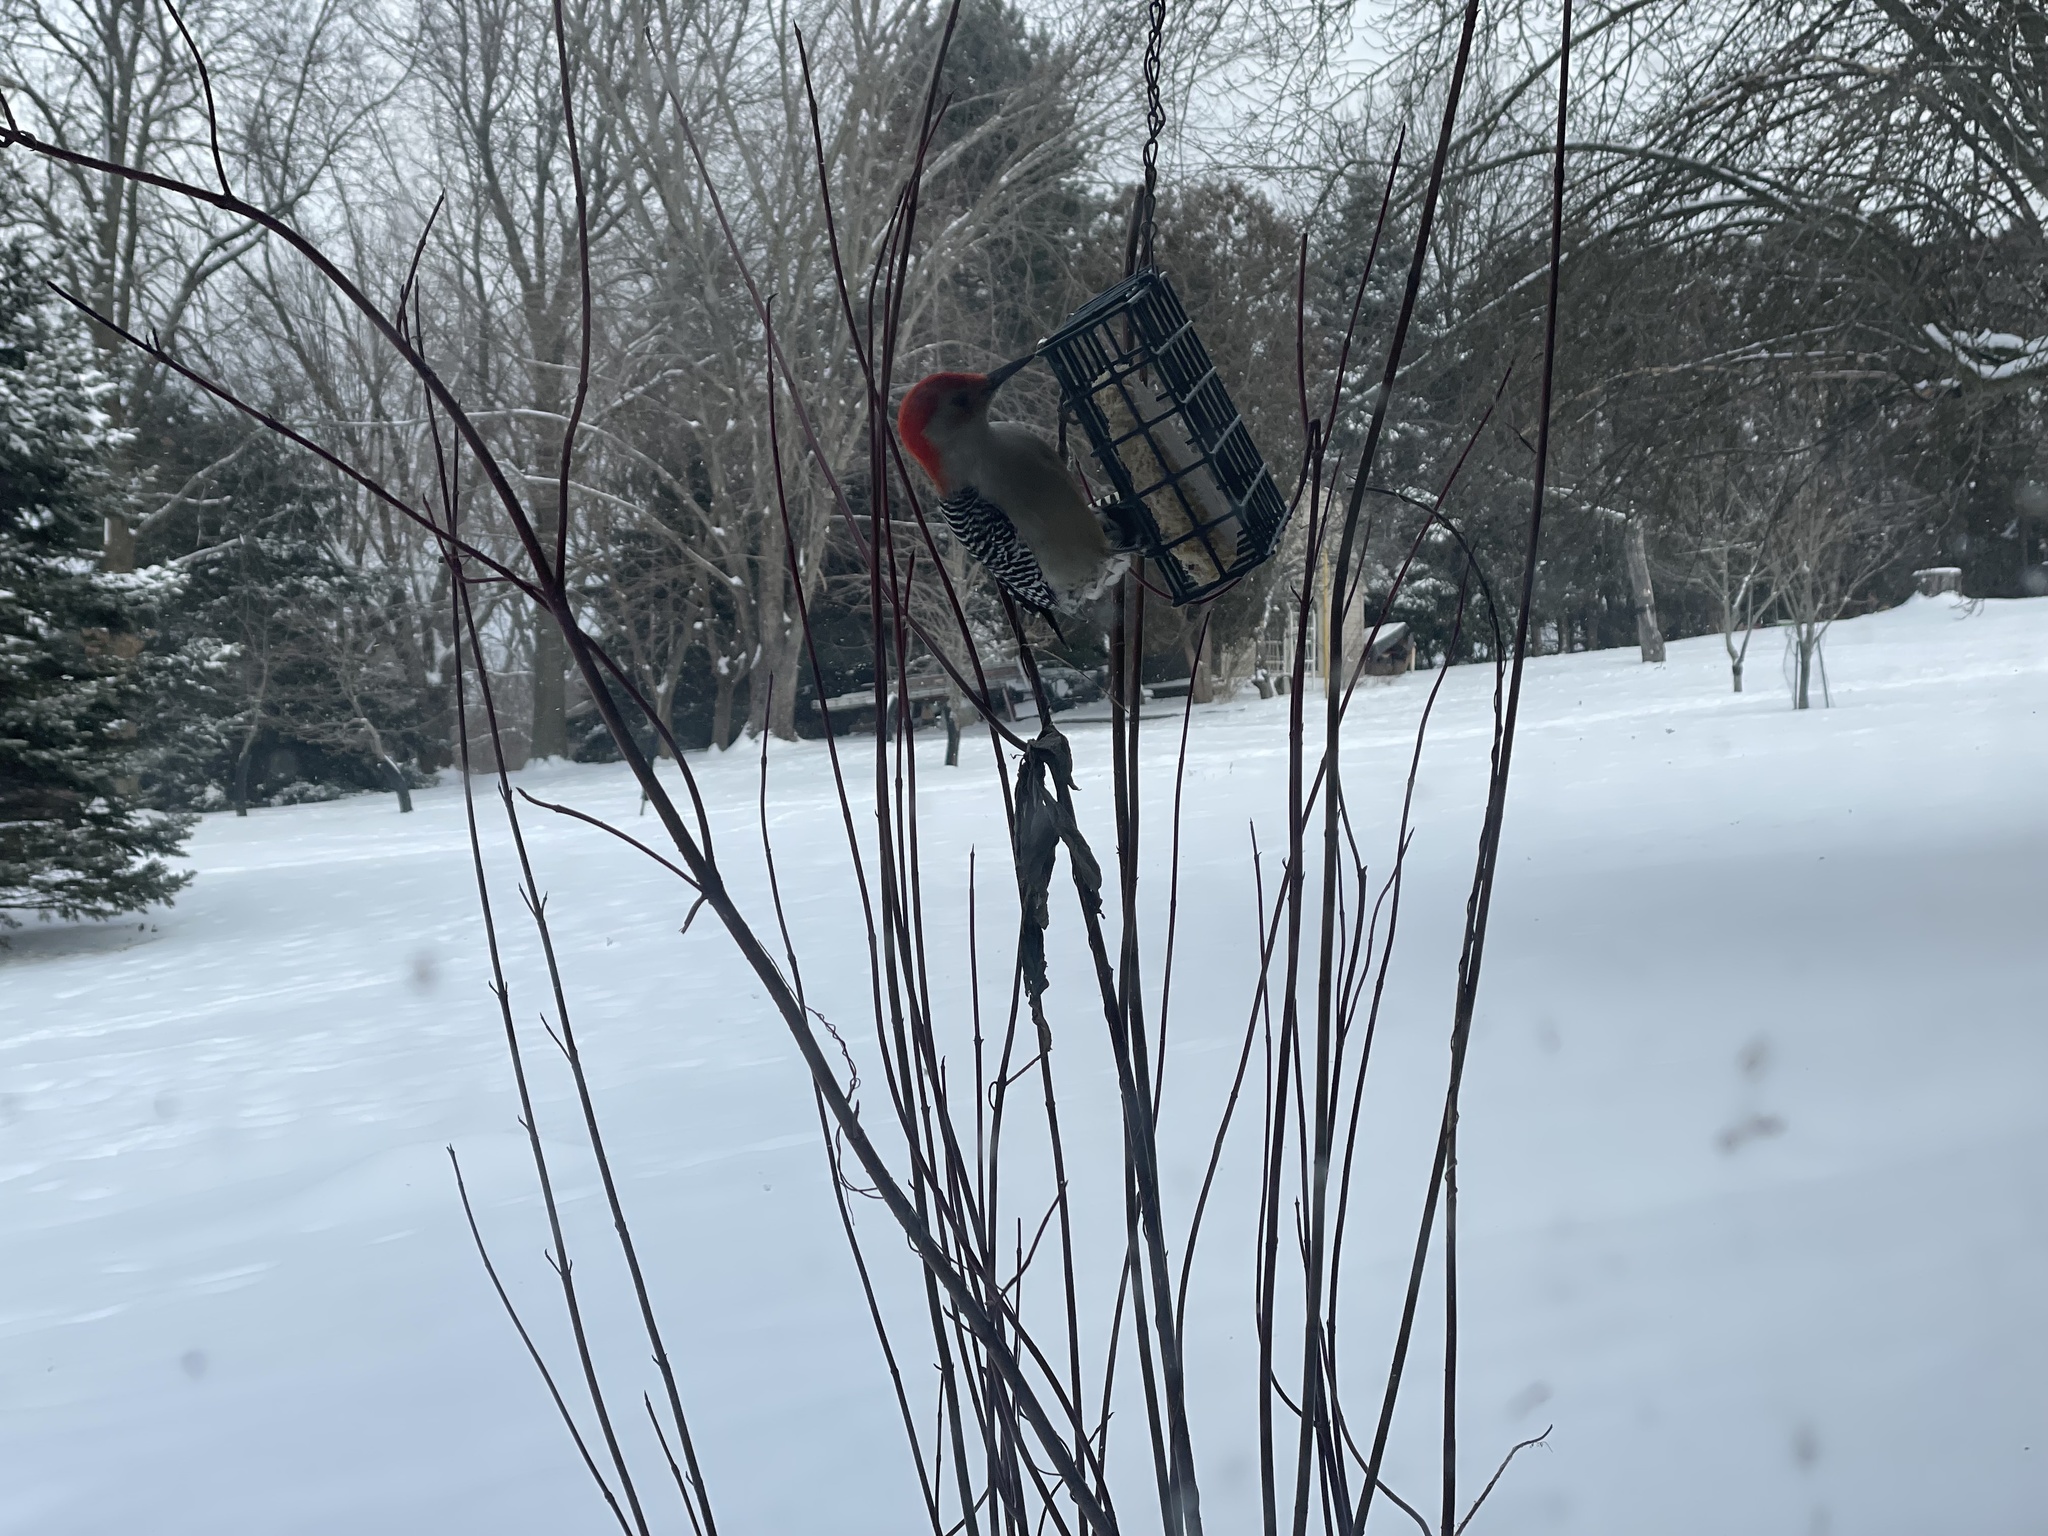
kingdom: Animalia
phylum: Chordata
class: Aves
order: Piciformes
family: Picidae
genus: Melanerpes
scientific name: Melanerpes carolinus
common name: Red-bellied woodpecker
